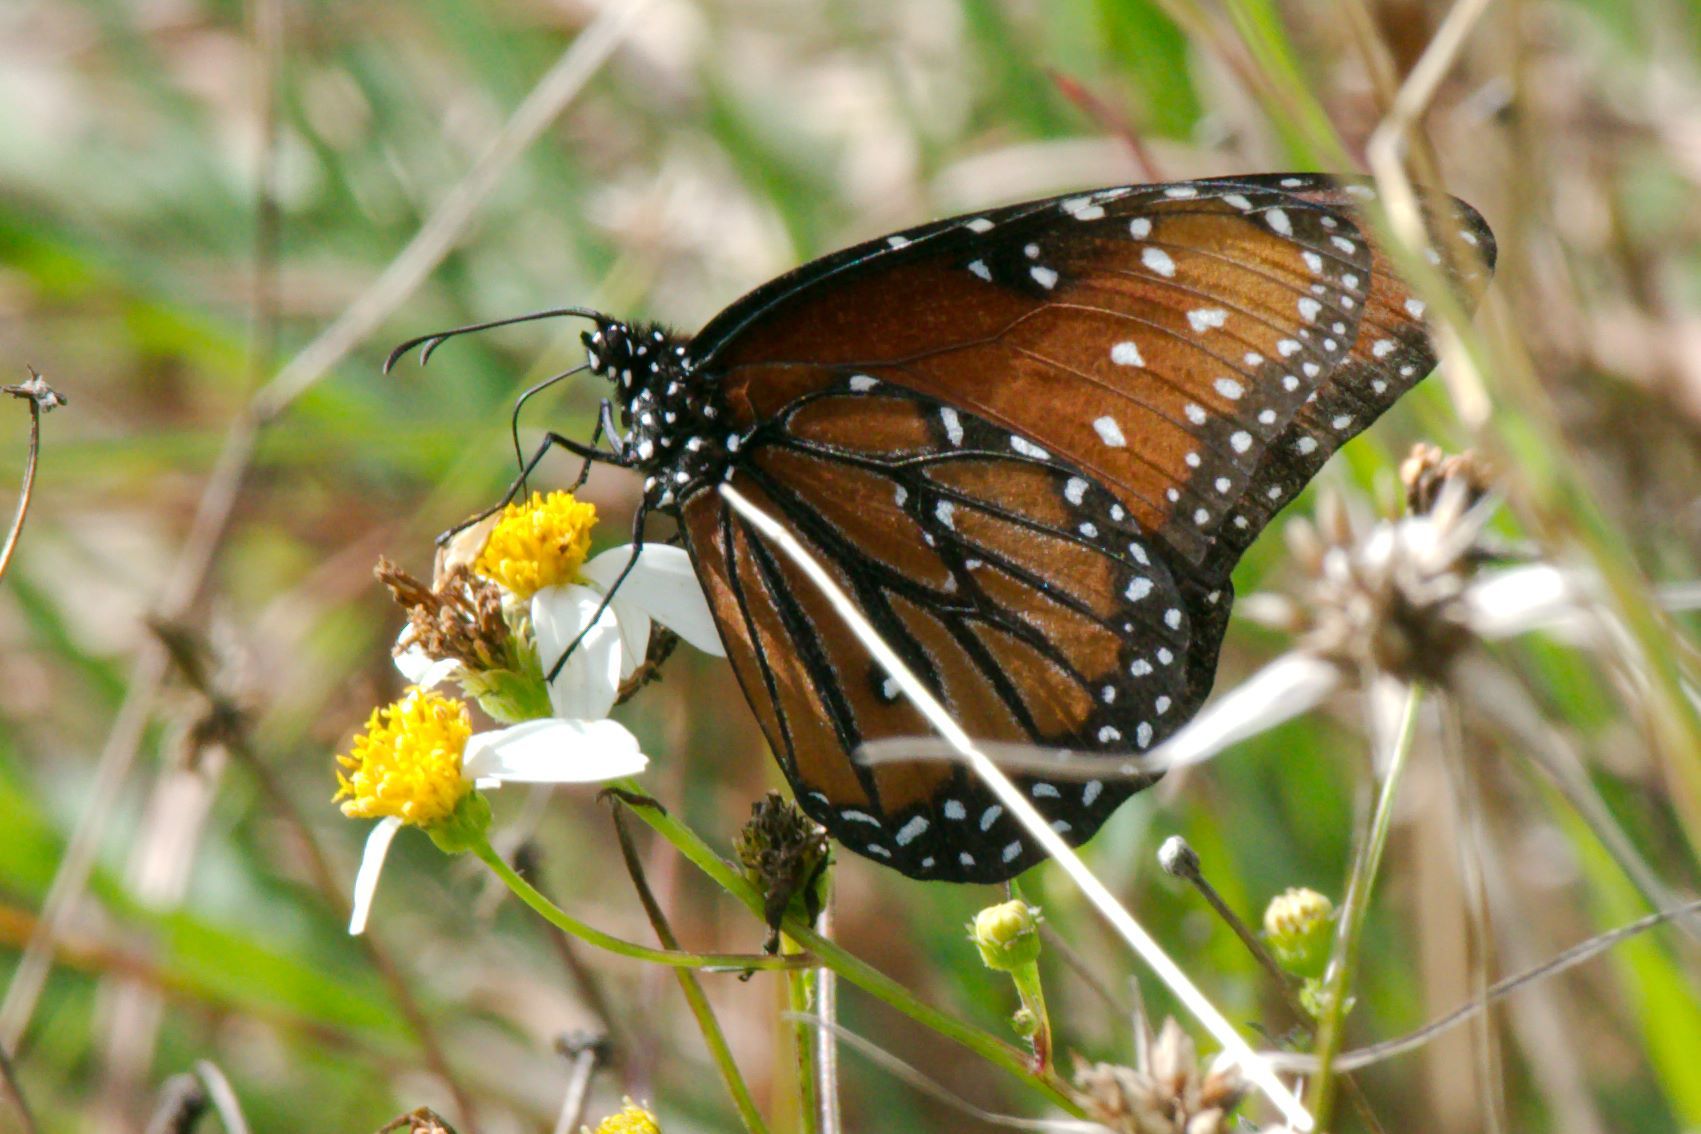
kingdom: Animalia
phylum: Arthropoda
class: Insecta
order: Lepidoptera
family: Nymphalidae
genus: Danaus
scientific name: Danaus gilippus
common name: Queen
